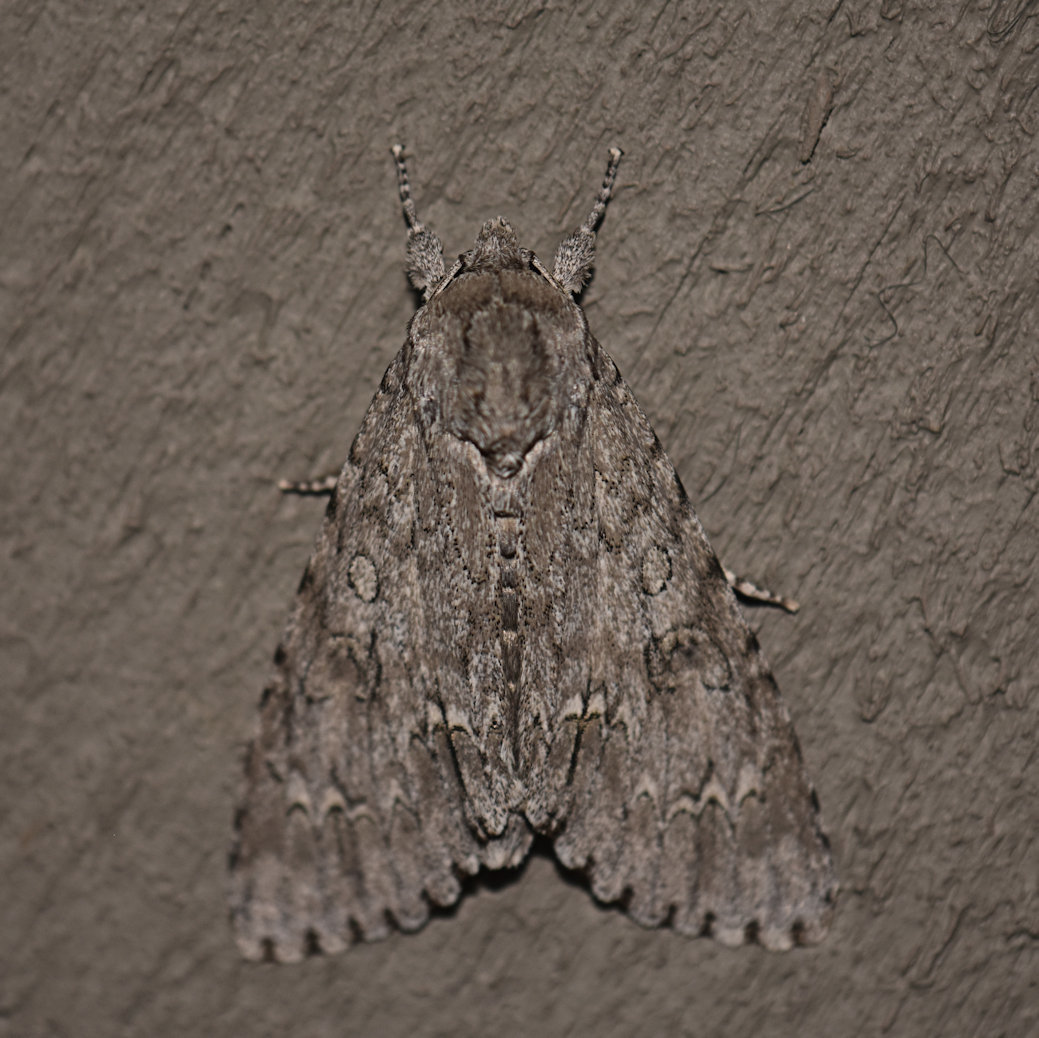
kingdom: Animalia
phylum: Arthropoda
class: Insecta
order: Lepidoptera
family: Noctuidae
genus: Acronicta
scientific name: Acronicta americana
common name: American dagger
